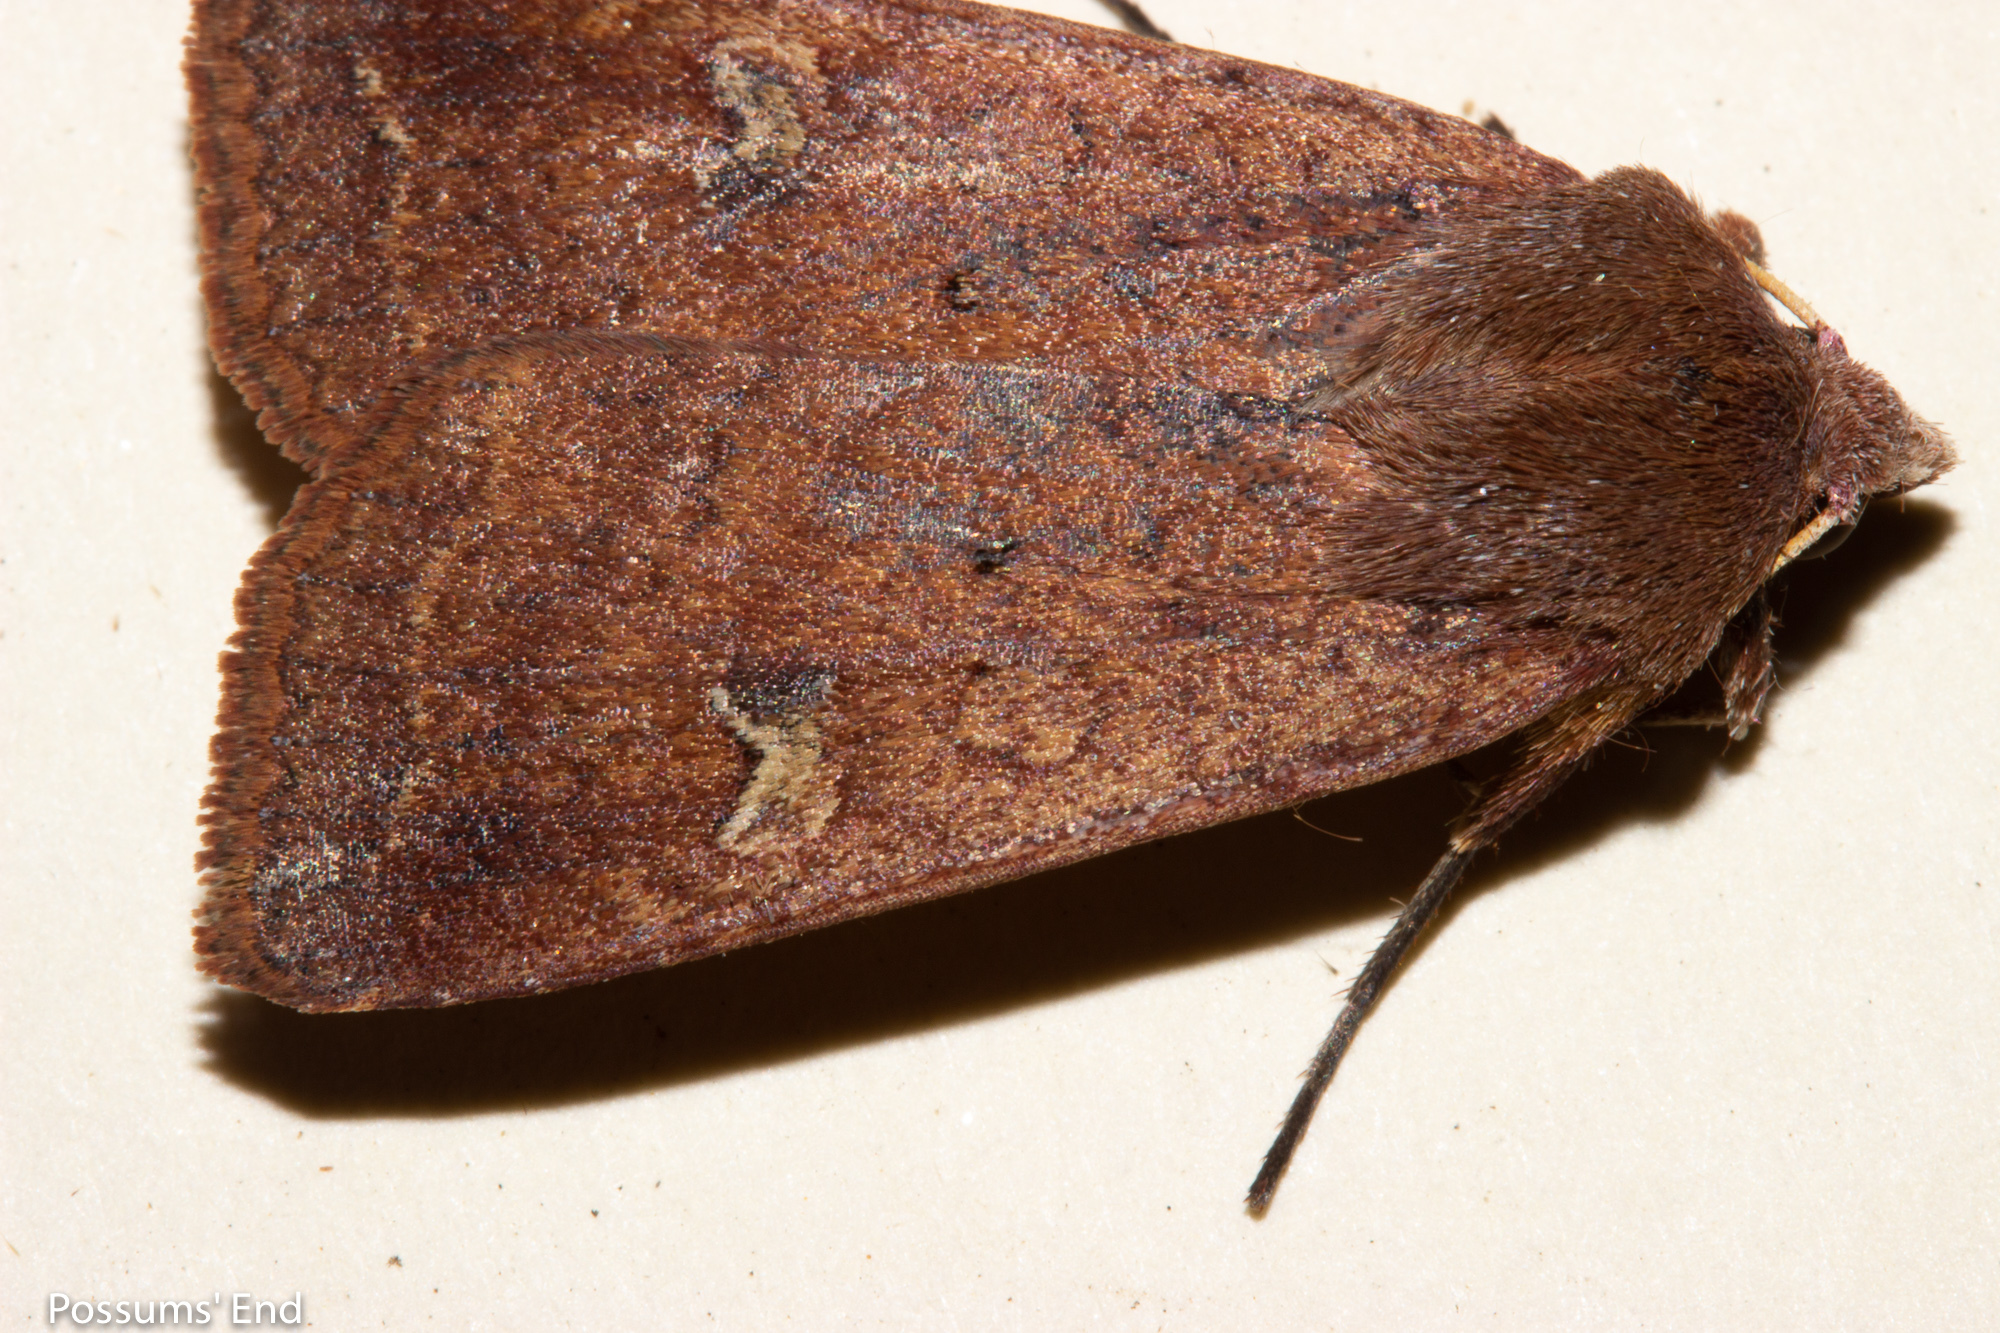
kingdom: Animalia
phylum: Arthropoda
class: Insecta
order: Lepidoptera
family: Noctuidae
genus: Diarsia
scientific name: Diarsia intermixta
